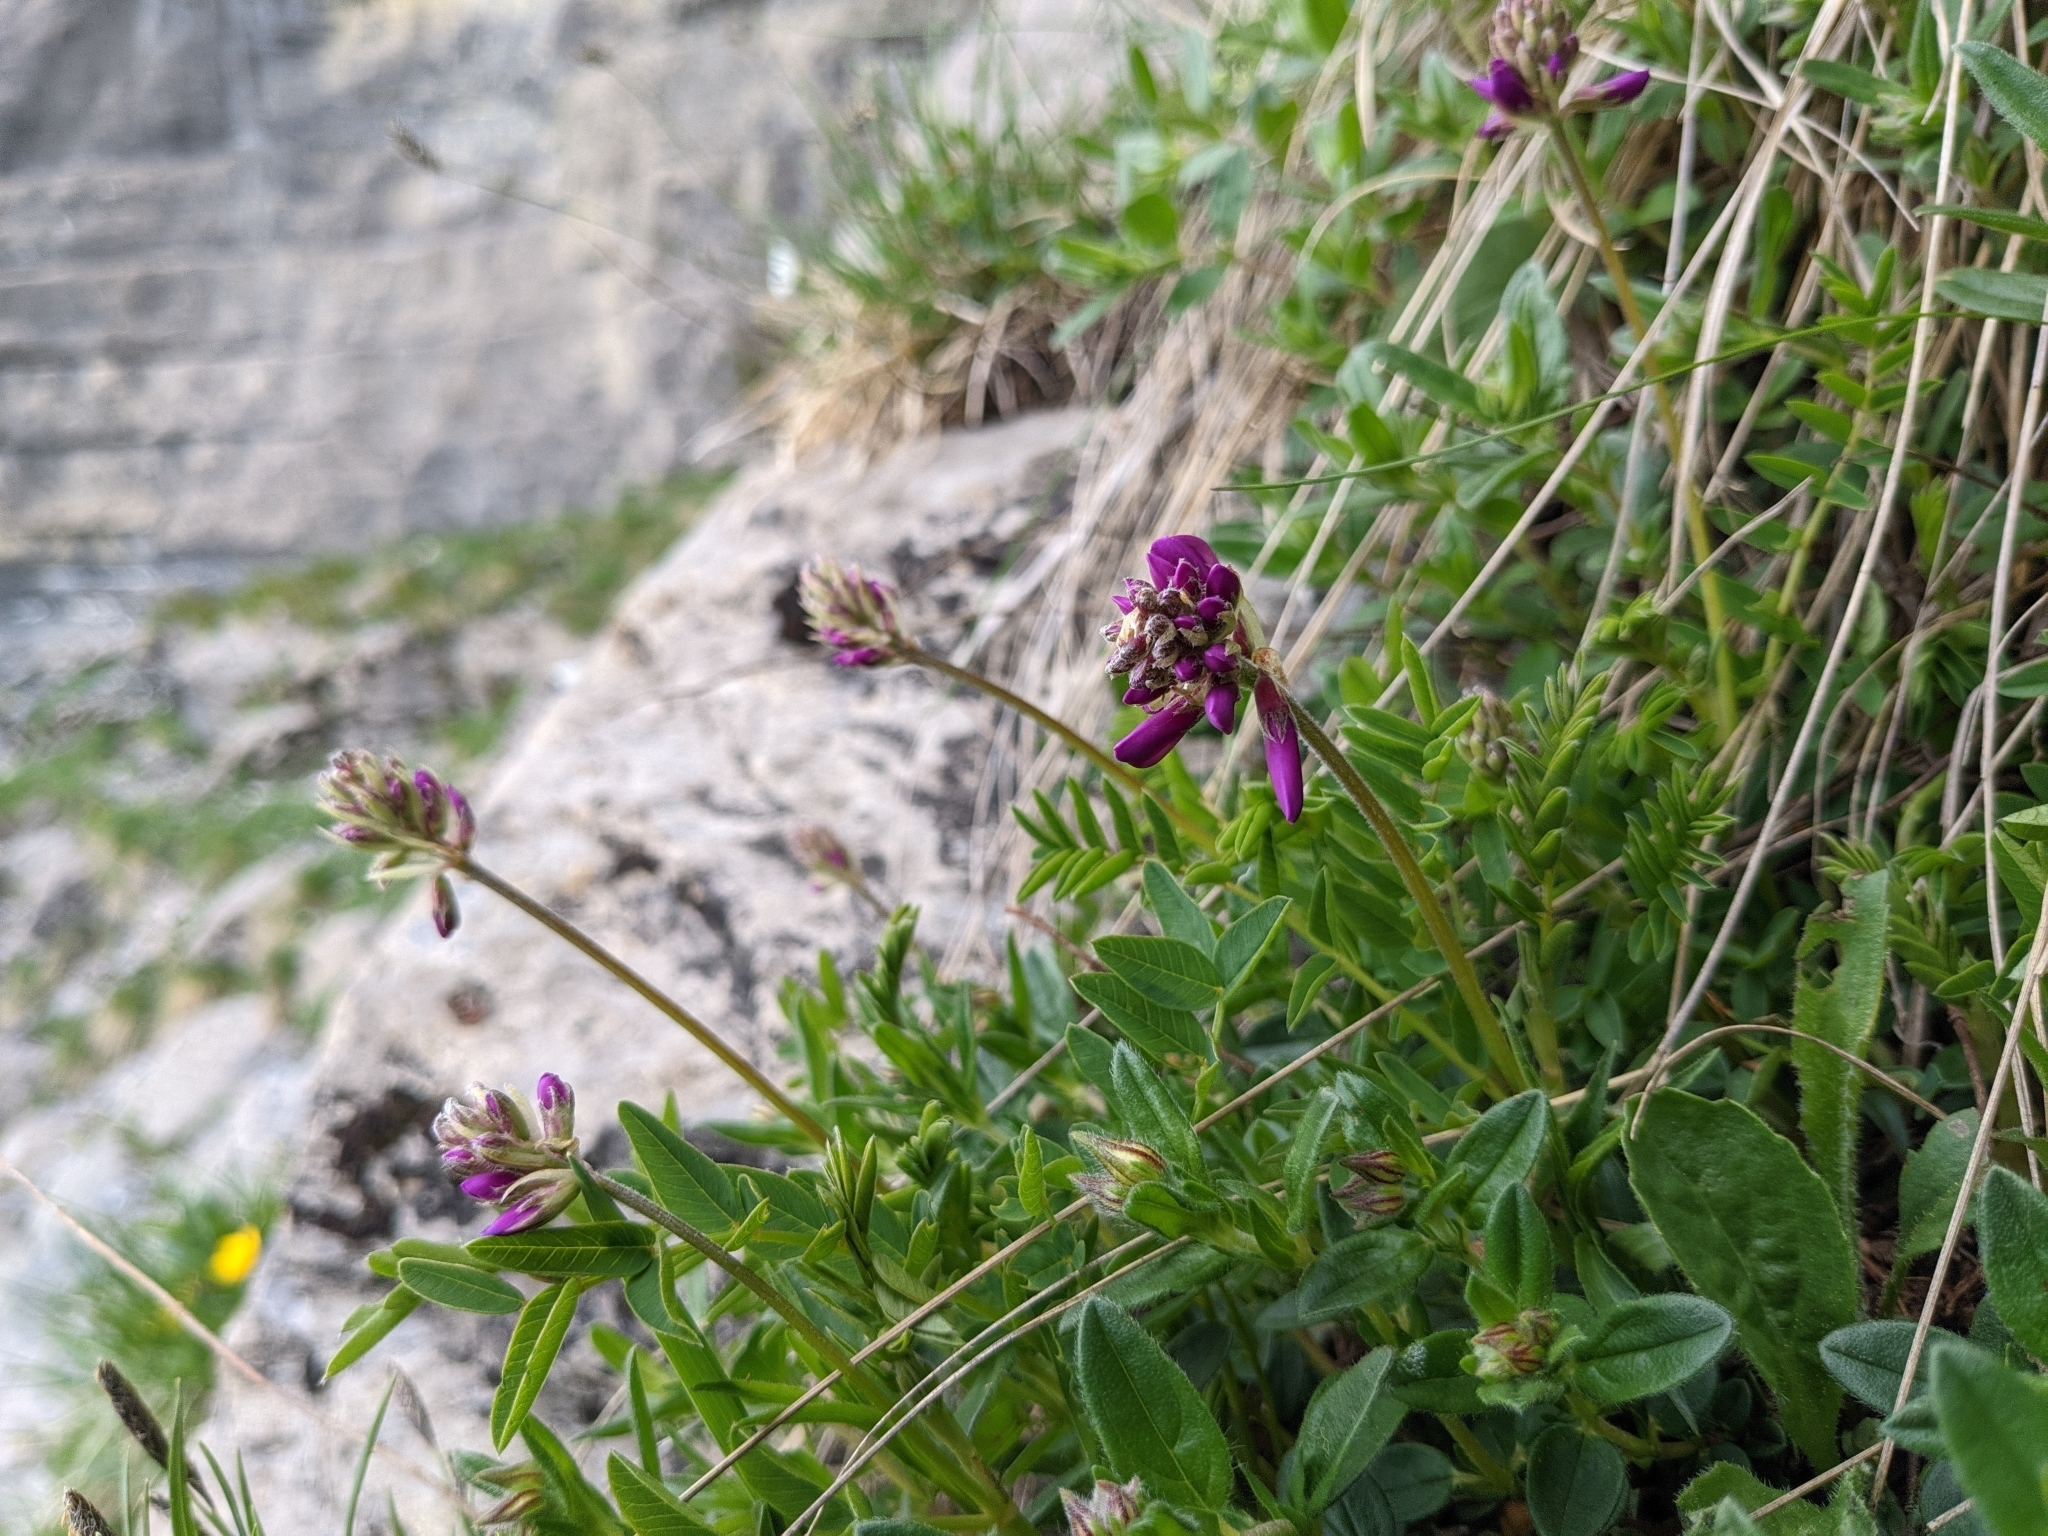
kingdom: Plantae
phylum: Tracheophyta
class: Magnoliopsida
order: Fabales
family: Fabaceae
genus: Hedysarum
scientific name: Hedysarum hedysaroides
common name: Alpine french-honeysuckle
